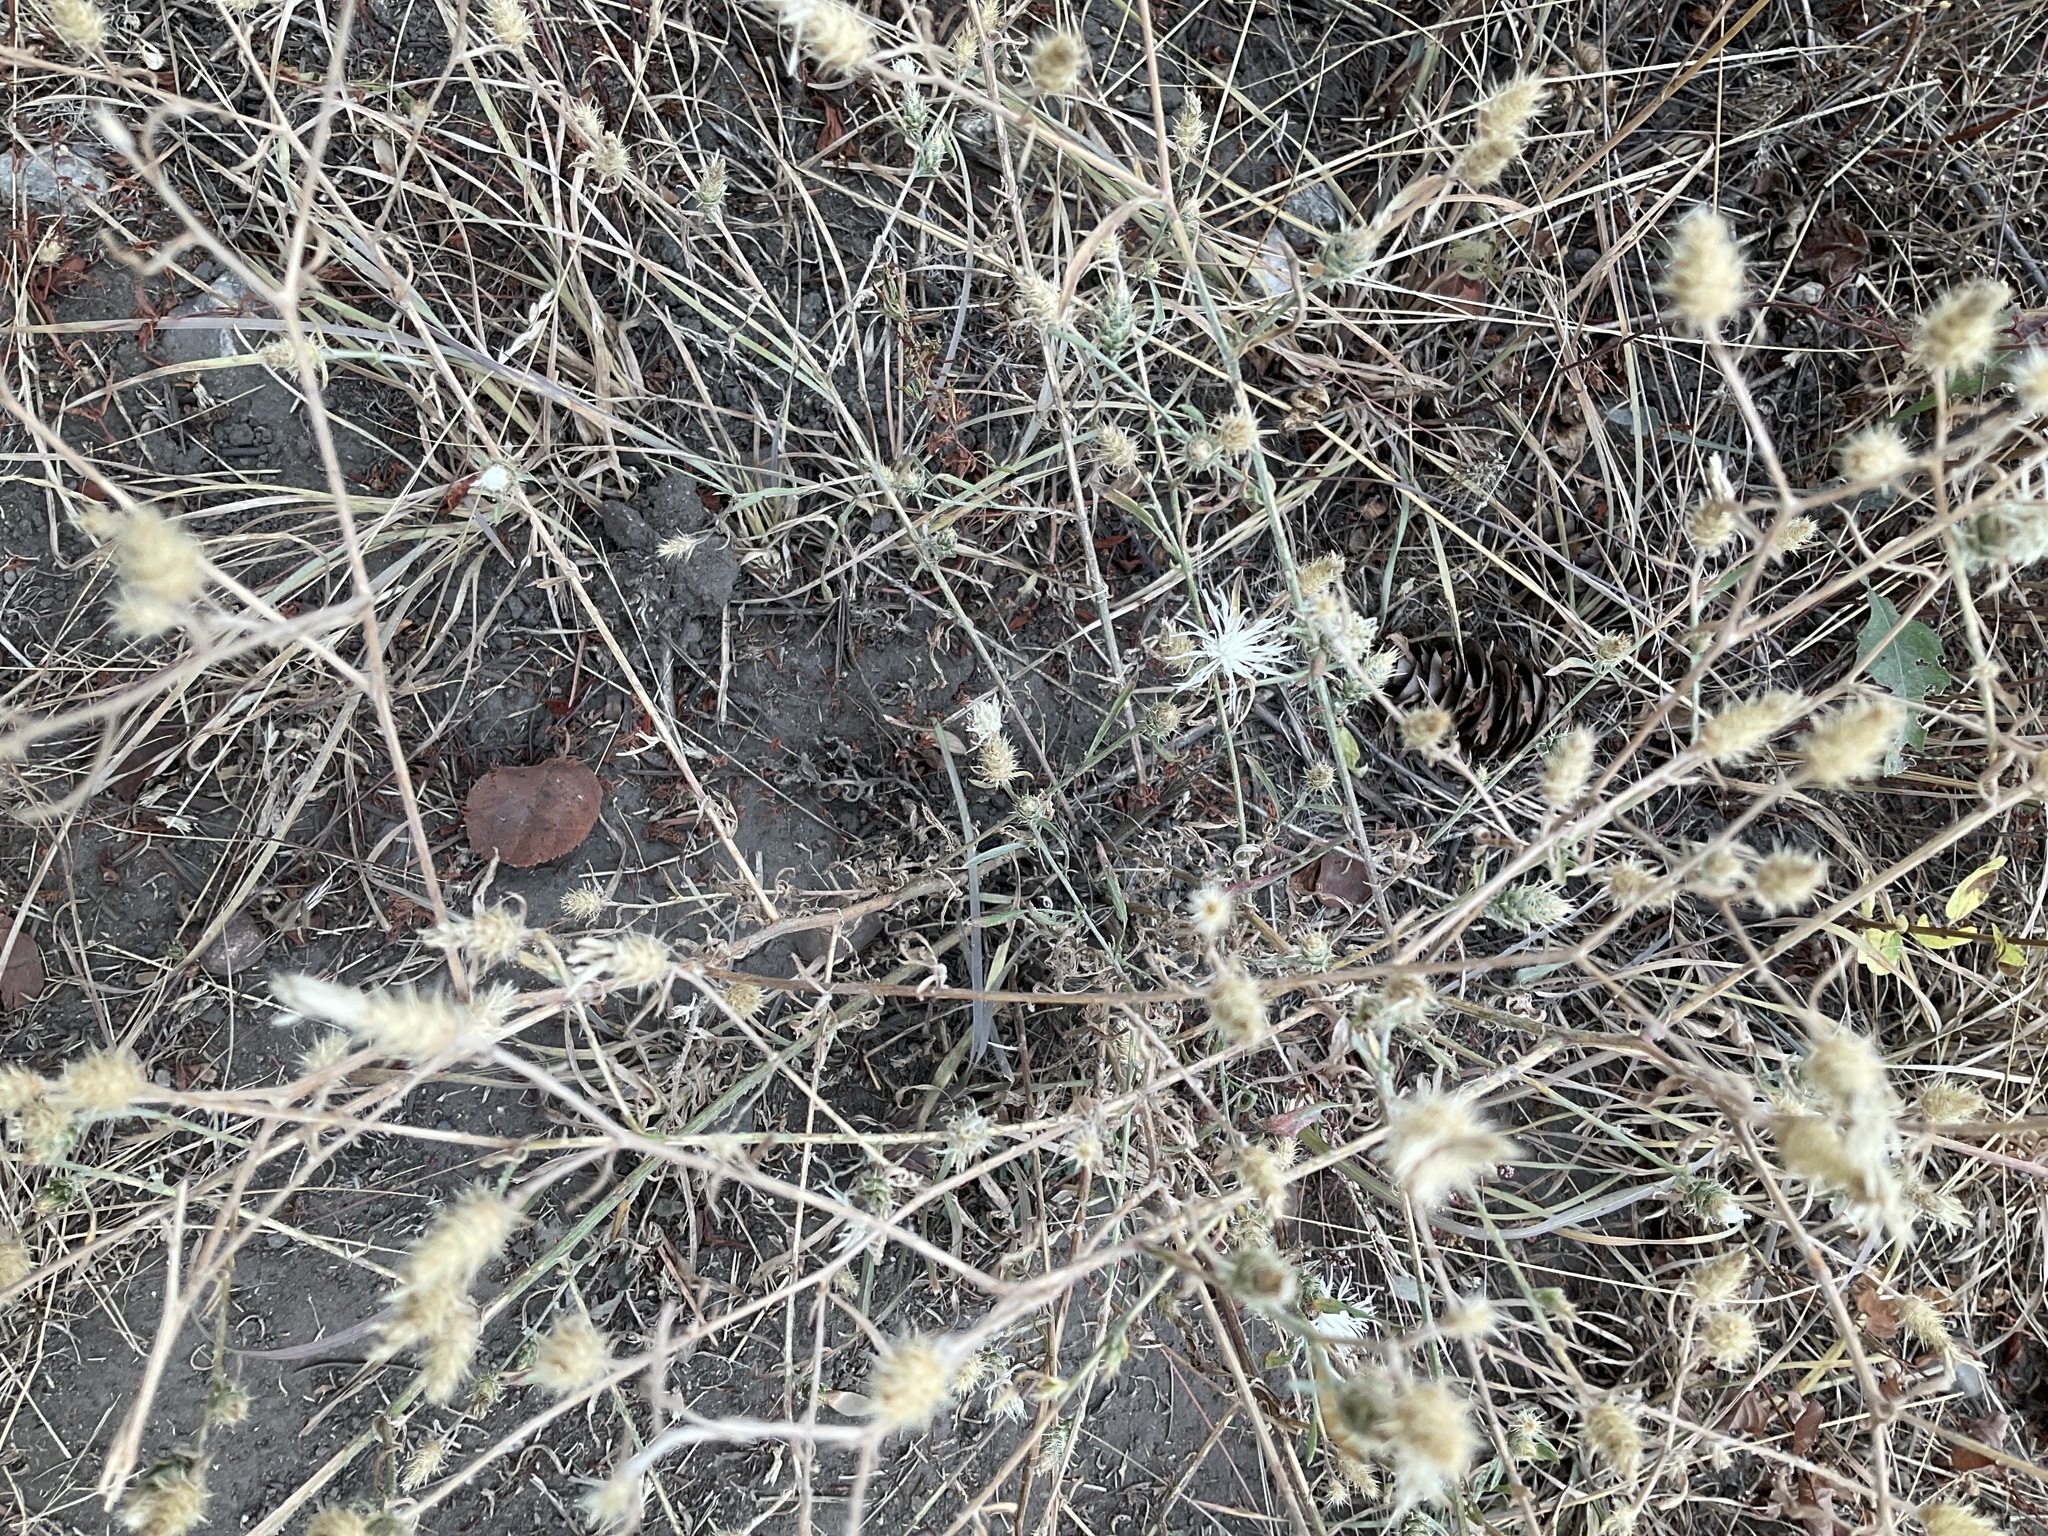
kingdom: Plantae
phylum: Tracheophyta
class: Magnoliopsida
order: Asterales
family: Asteraceae
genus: Centaurea
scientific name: Centaurea diffusa
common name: Diffuse knapweed
